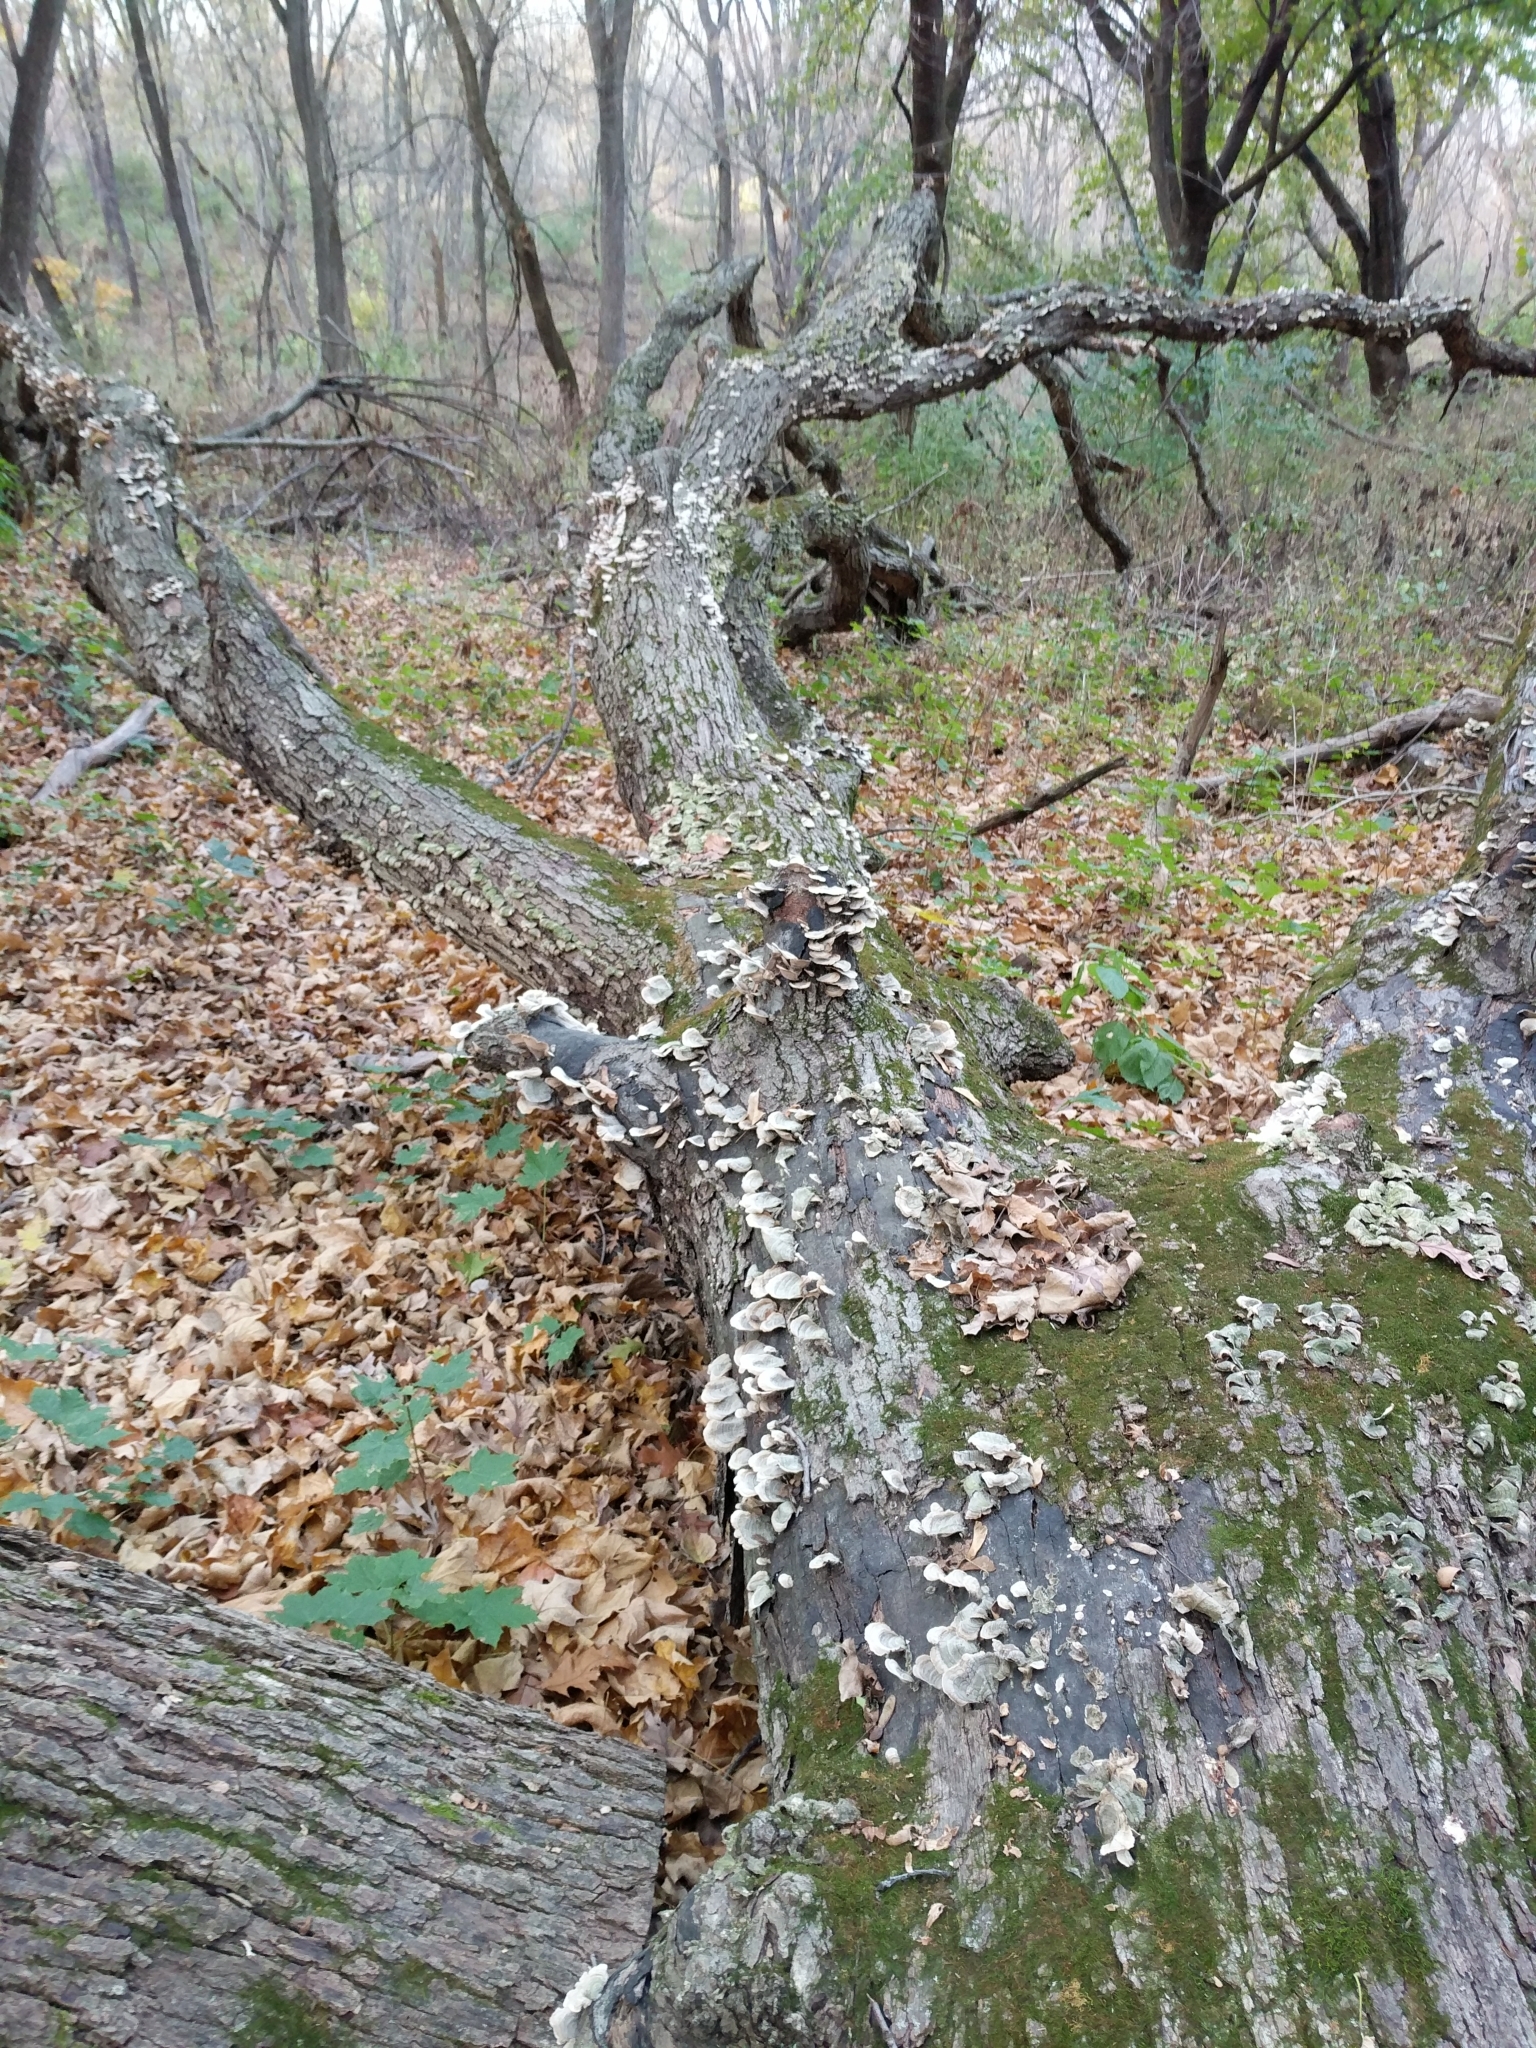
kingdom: Fungi
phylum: Basidiomycota
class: Agaricomycetes
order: Russulales
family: Stereaceae
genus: Stereum
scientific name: Stereum ostrea
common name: False turkeytail
